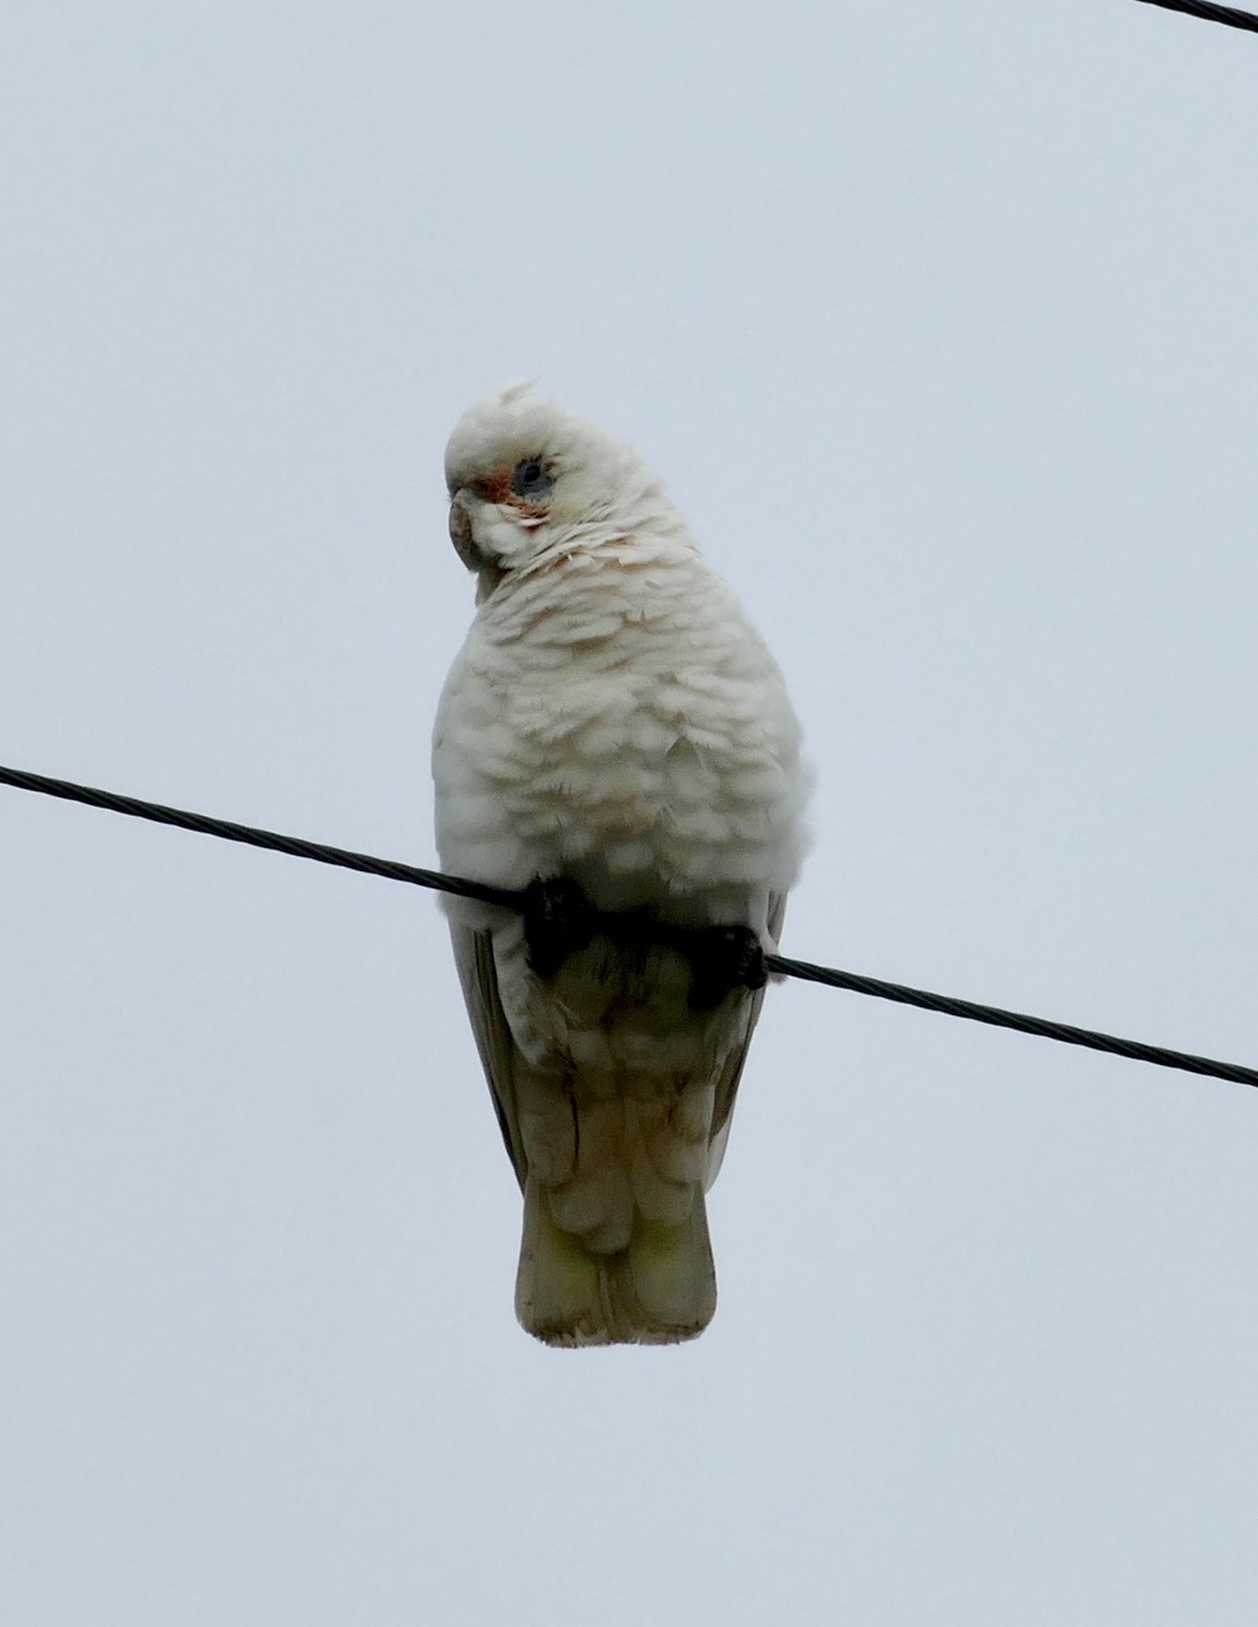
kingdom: Animalia
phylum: Chordata
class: Aves
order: Psittaciformes
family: Psittacidae
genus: Cacatua
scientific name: Cacatua sanguinea
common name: Little corella
